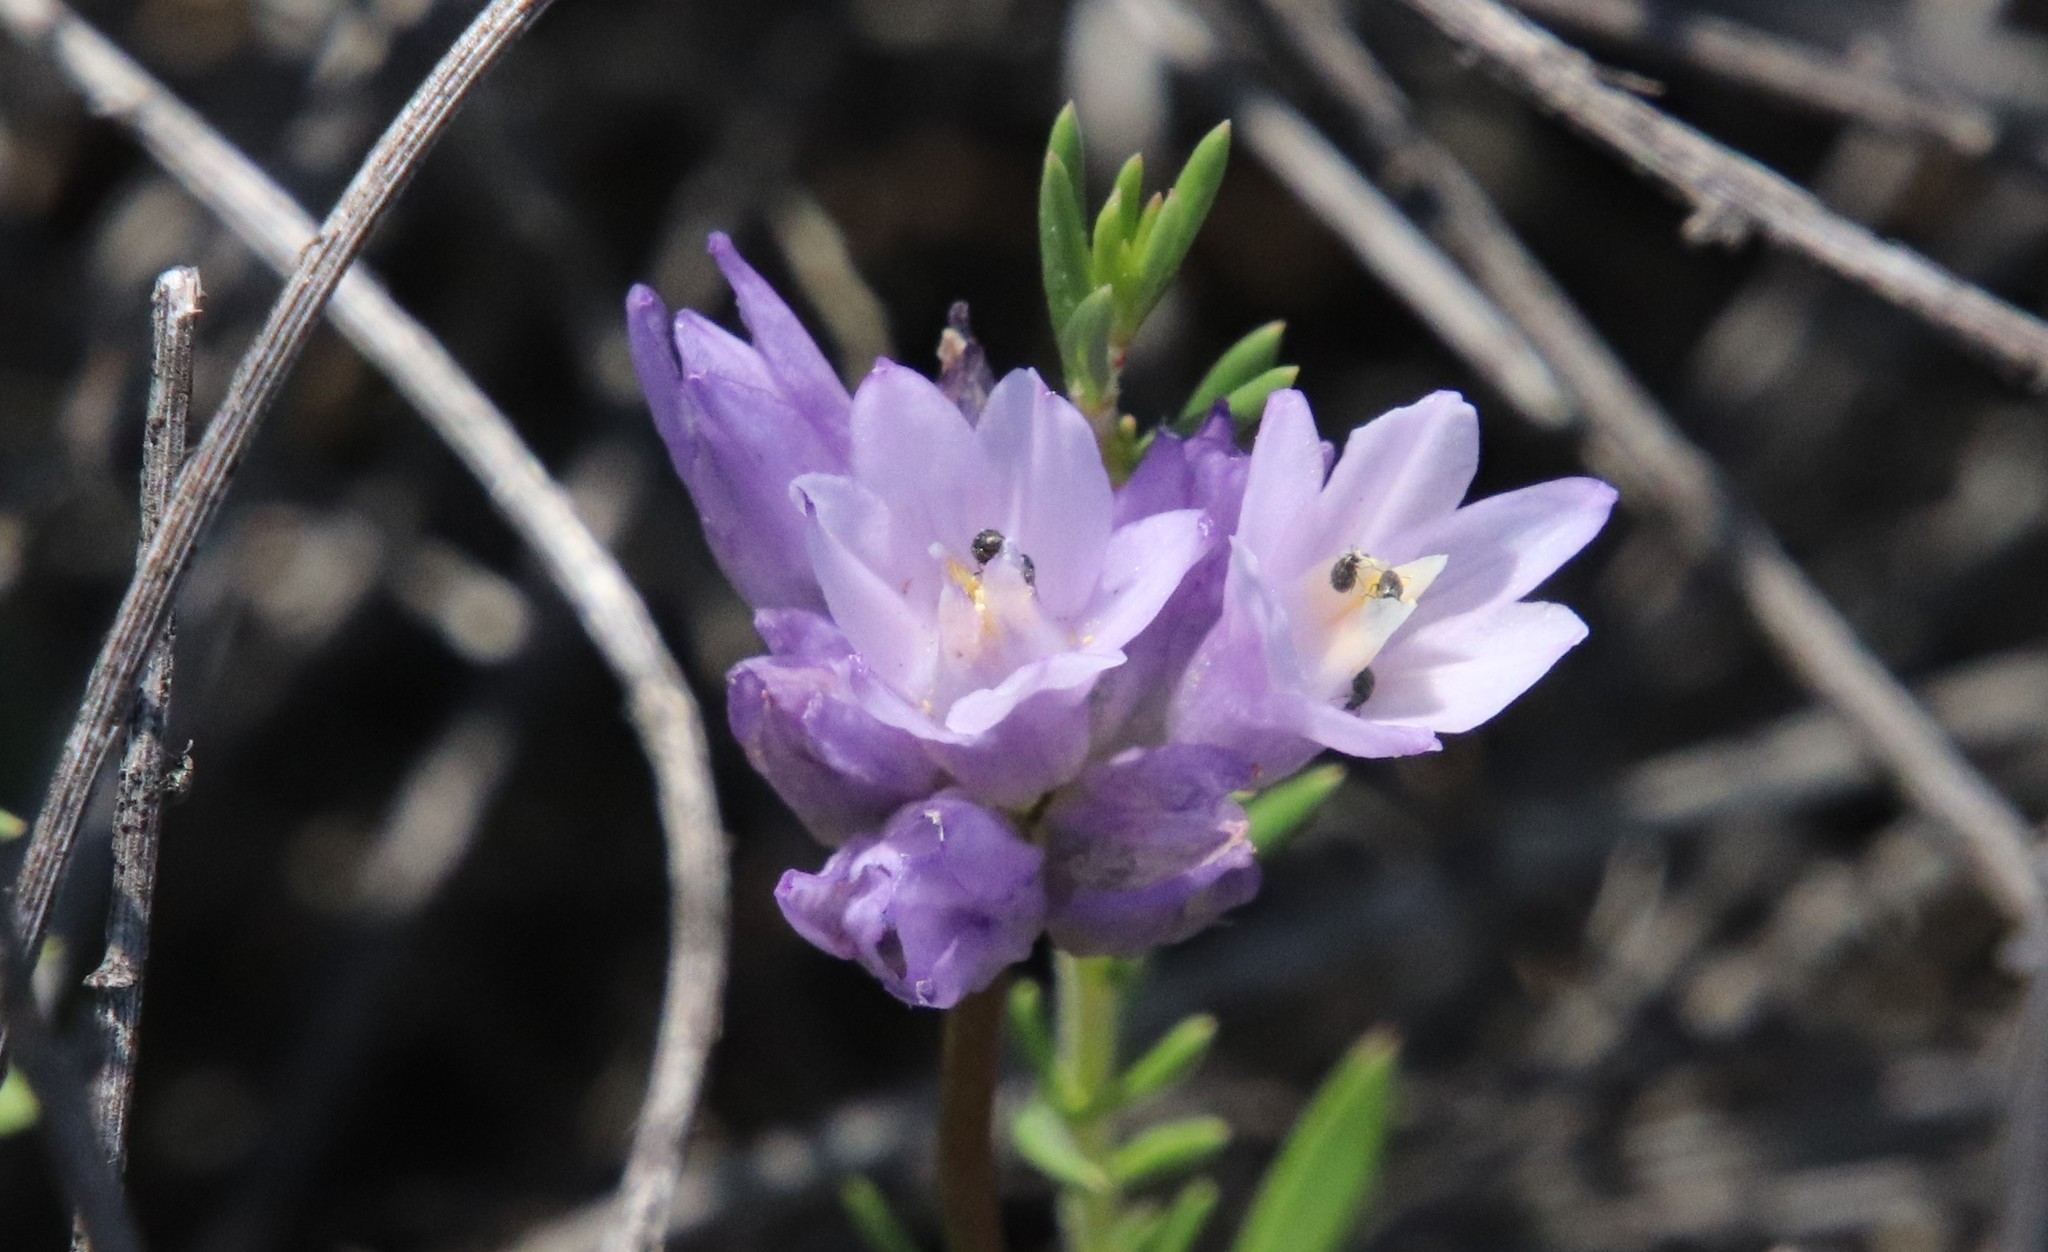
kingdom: Plantae
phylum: Tracheophyta
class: Liliopsida
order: Asparagales
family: Asparagaceae
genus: Dipterostemon
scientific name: Dipterostemon capitatus
